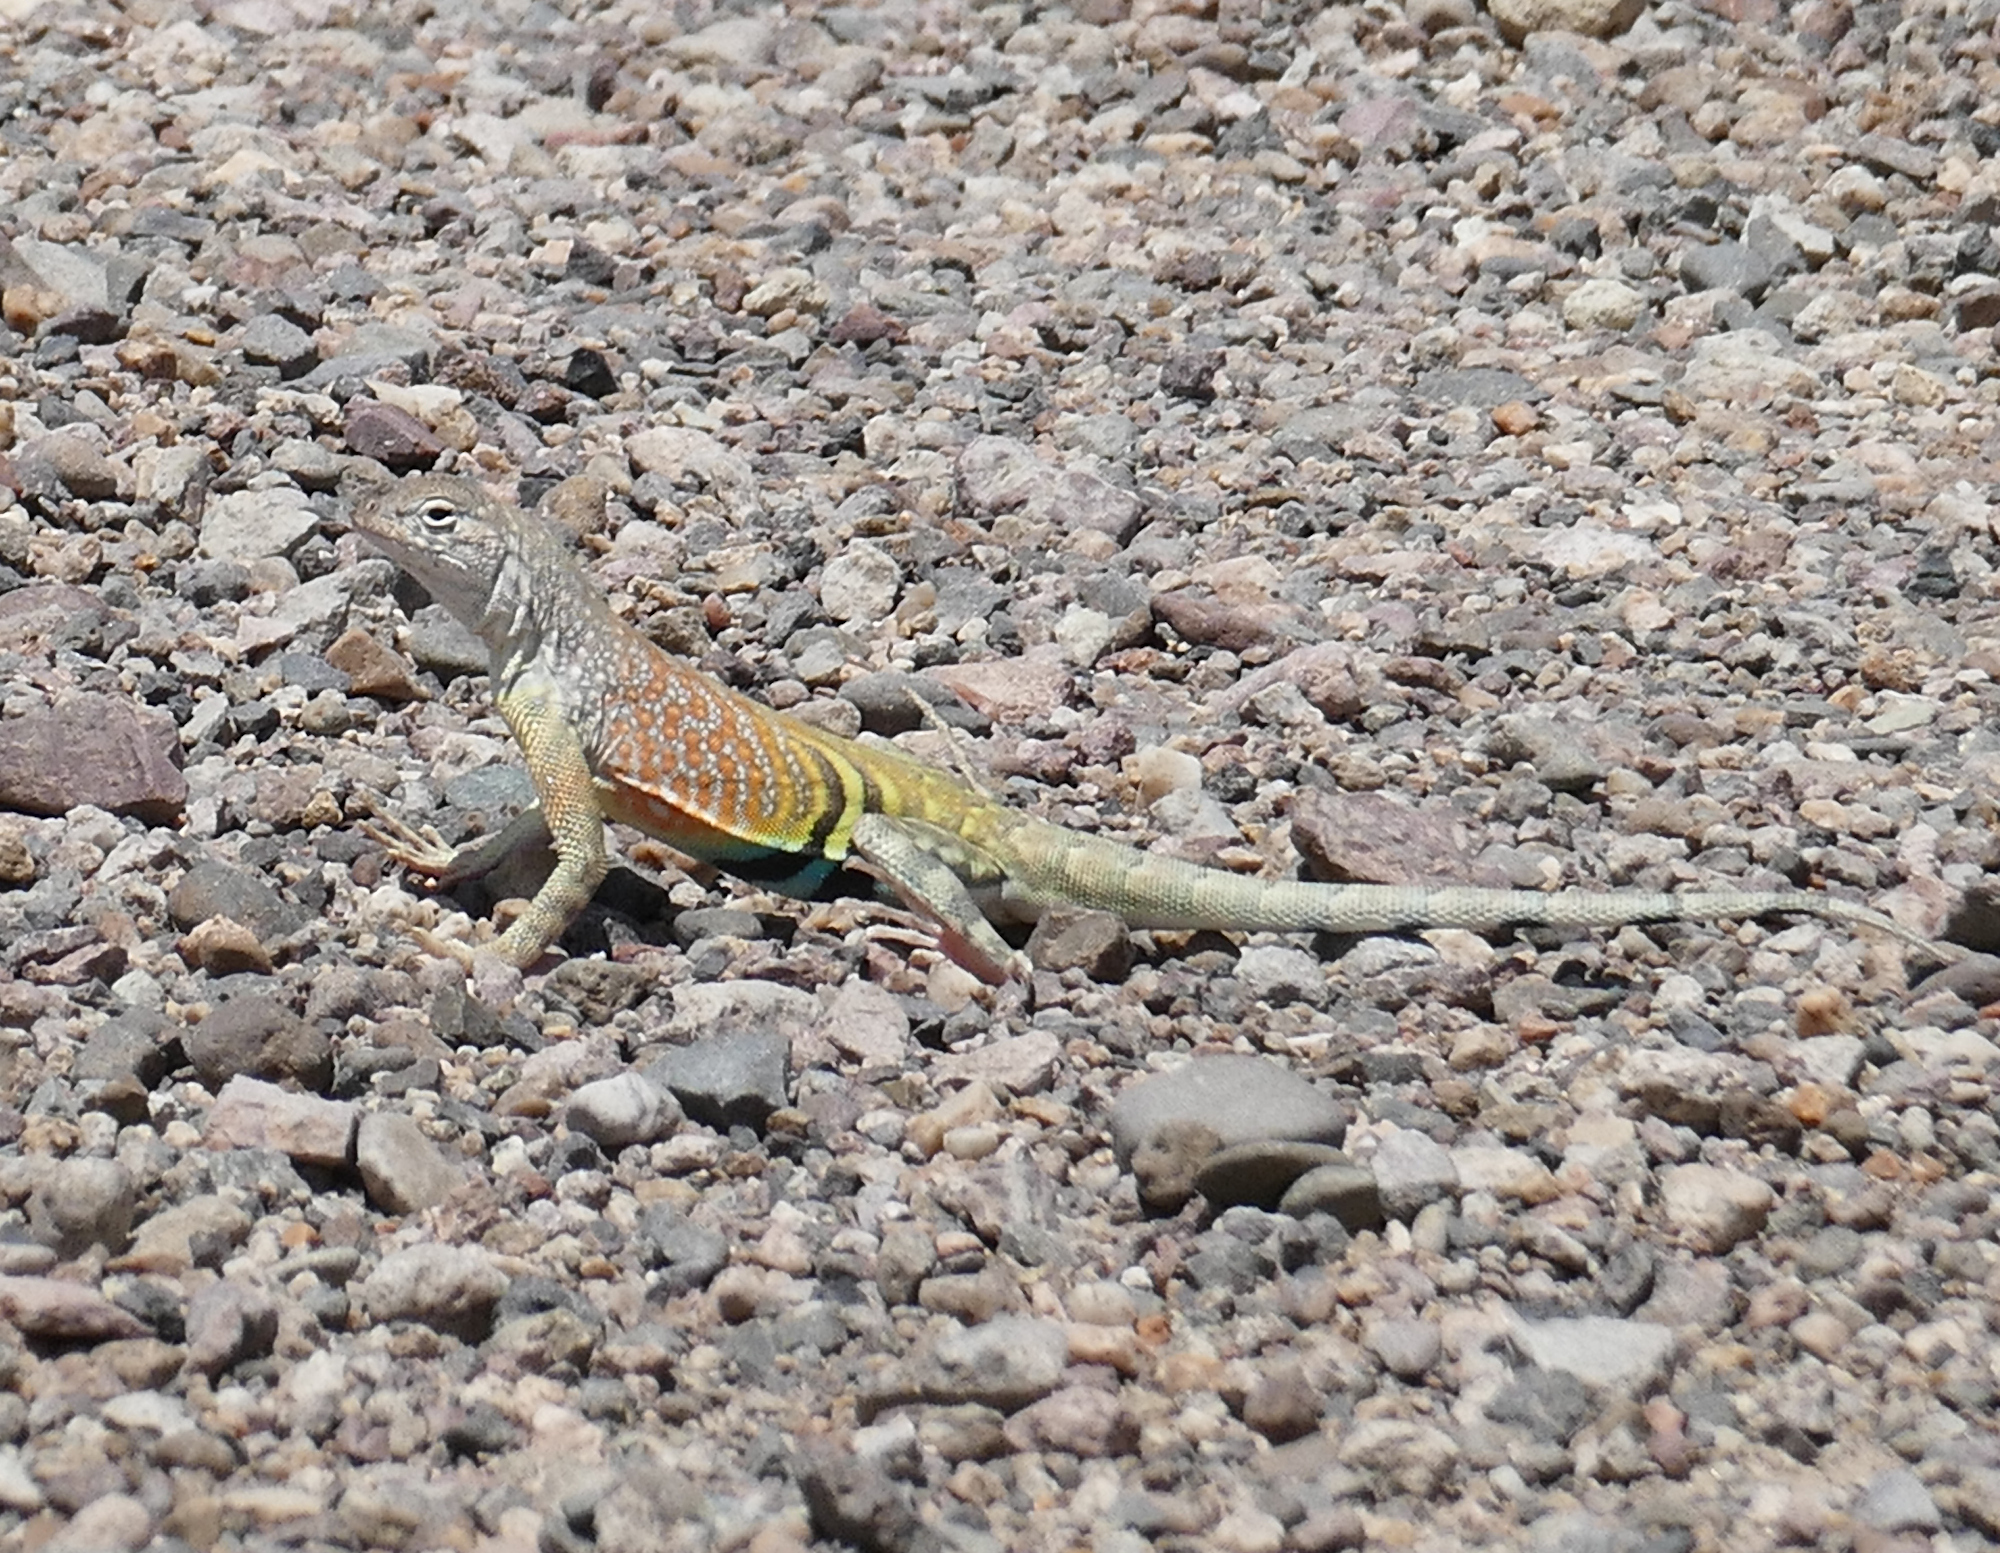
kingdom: Animalia
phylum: Chordata
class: Squamata
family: Phrynosomatidae
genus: Cophosaurus
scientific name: Cophosaurus texanus
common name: Greater earless lizard
